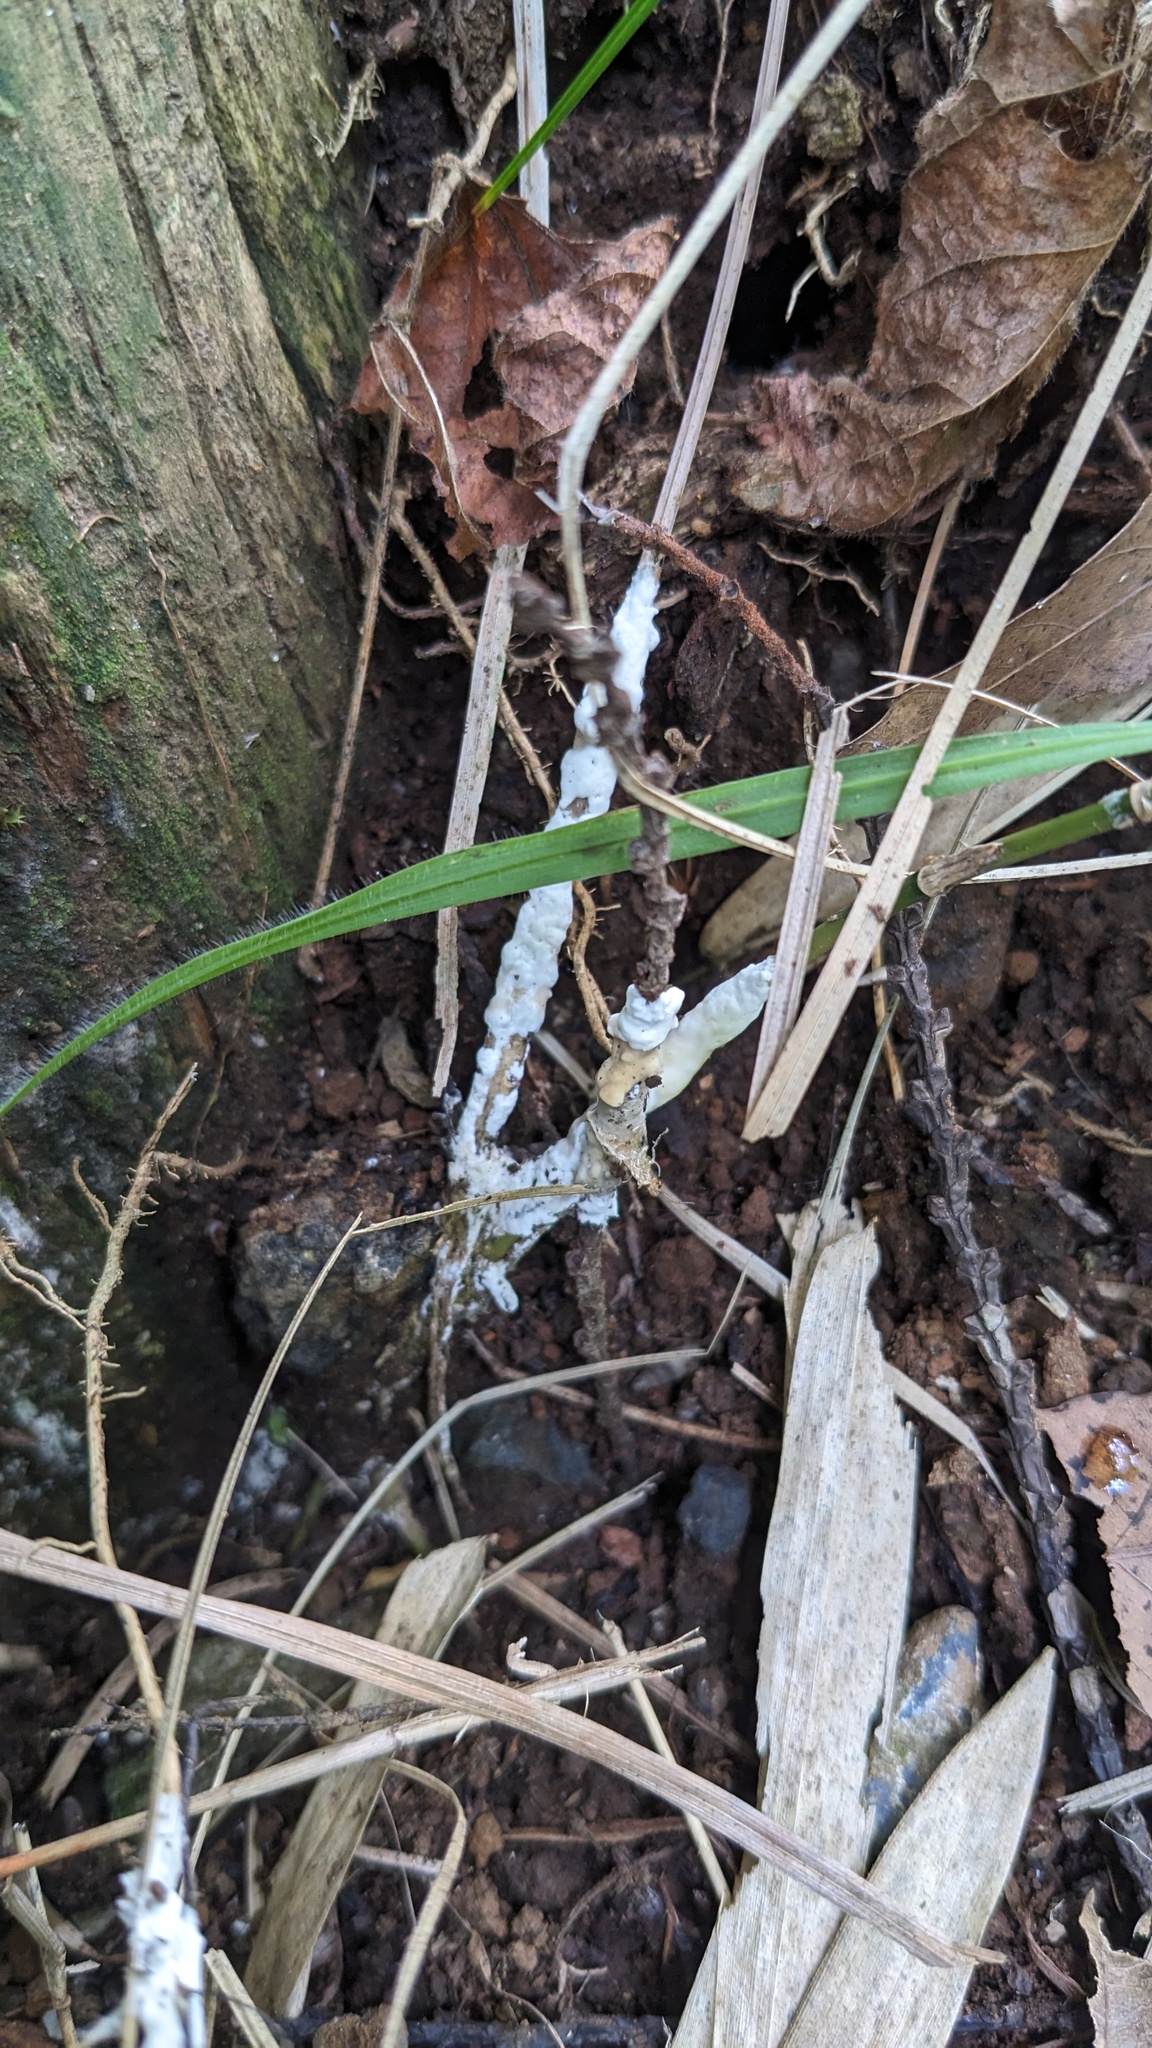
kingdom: Fungi
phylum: Basidiomycota
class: Agaricomycetes
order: Sebacinales
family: Sebacinaceae
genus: Sebacina
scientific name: Sebacina incrustans
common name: Enveloping crust
